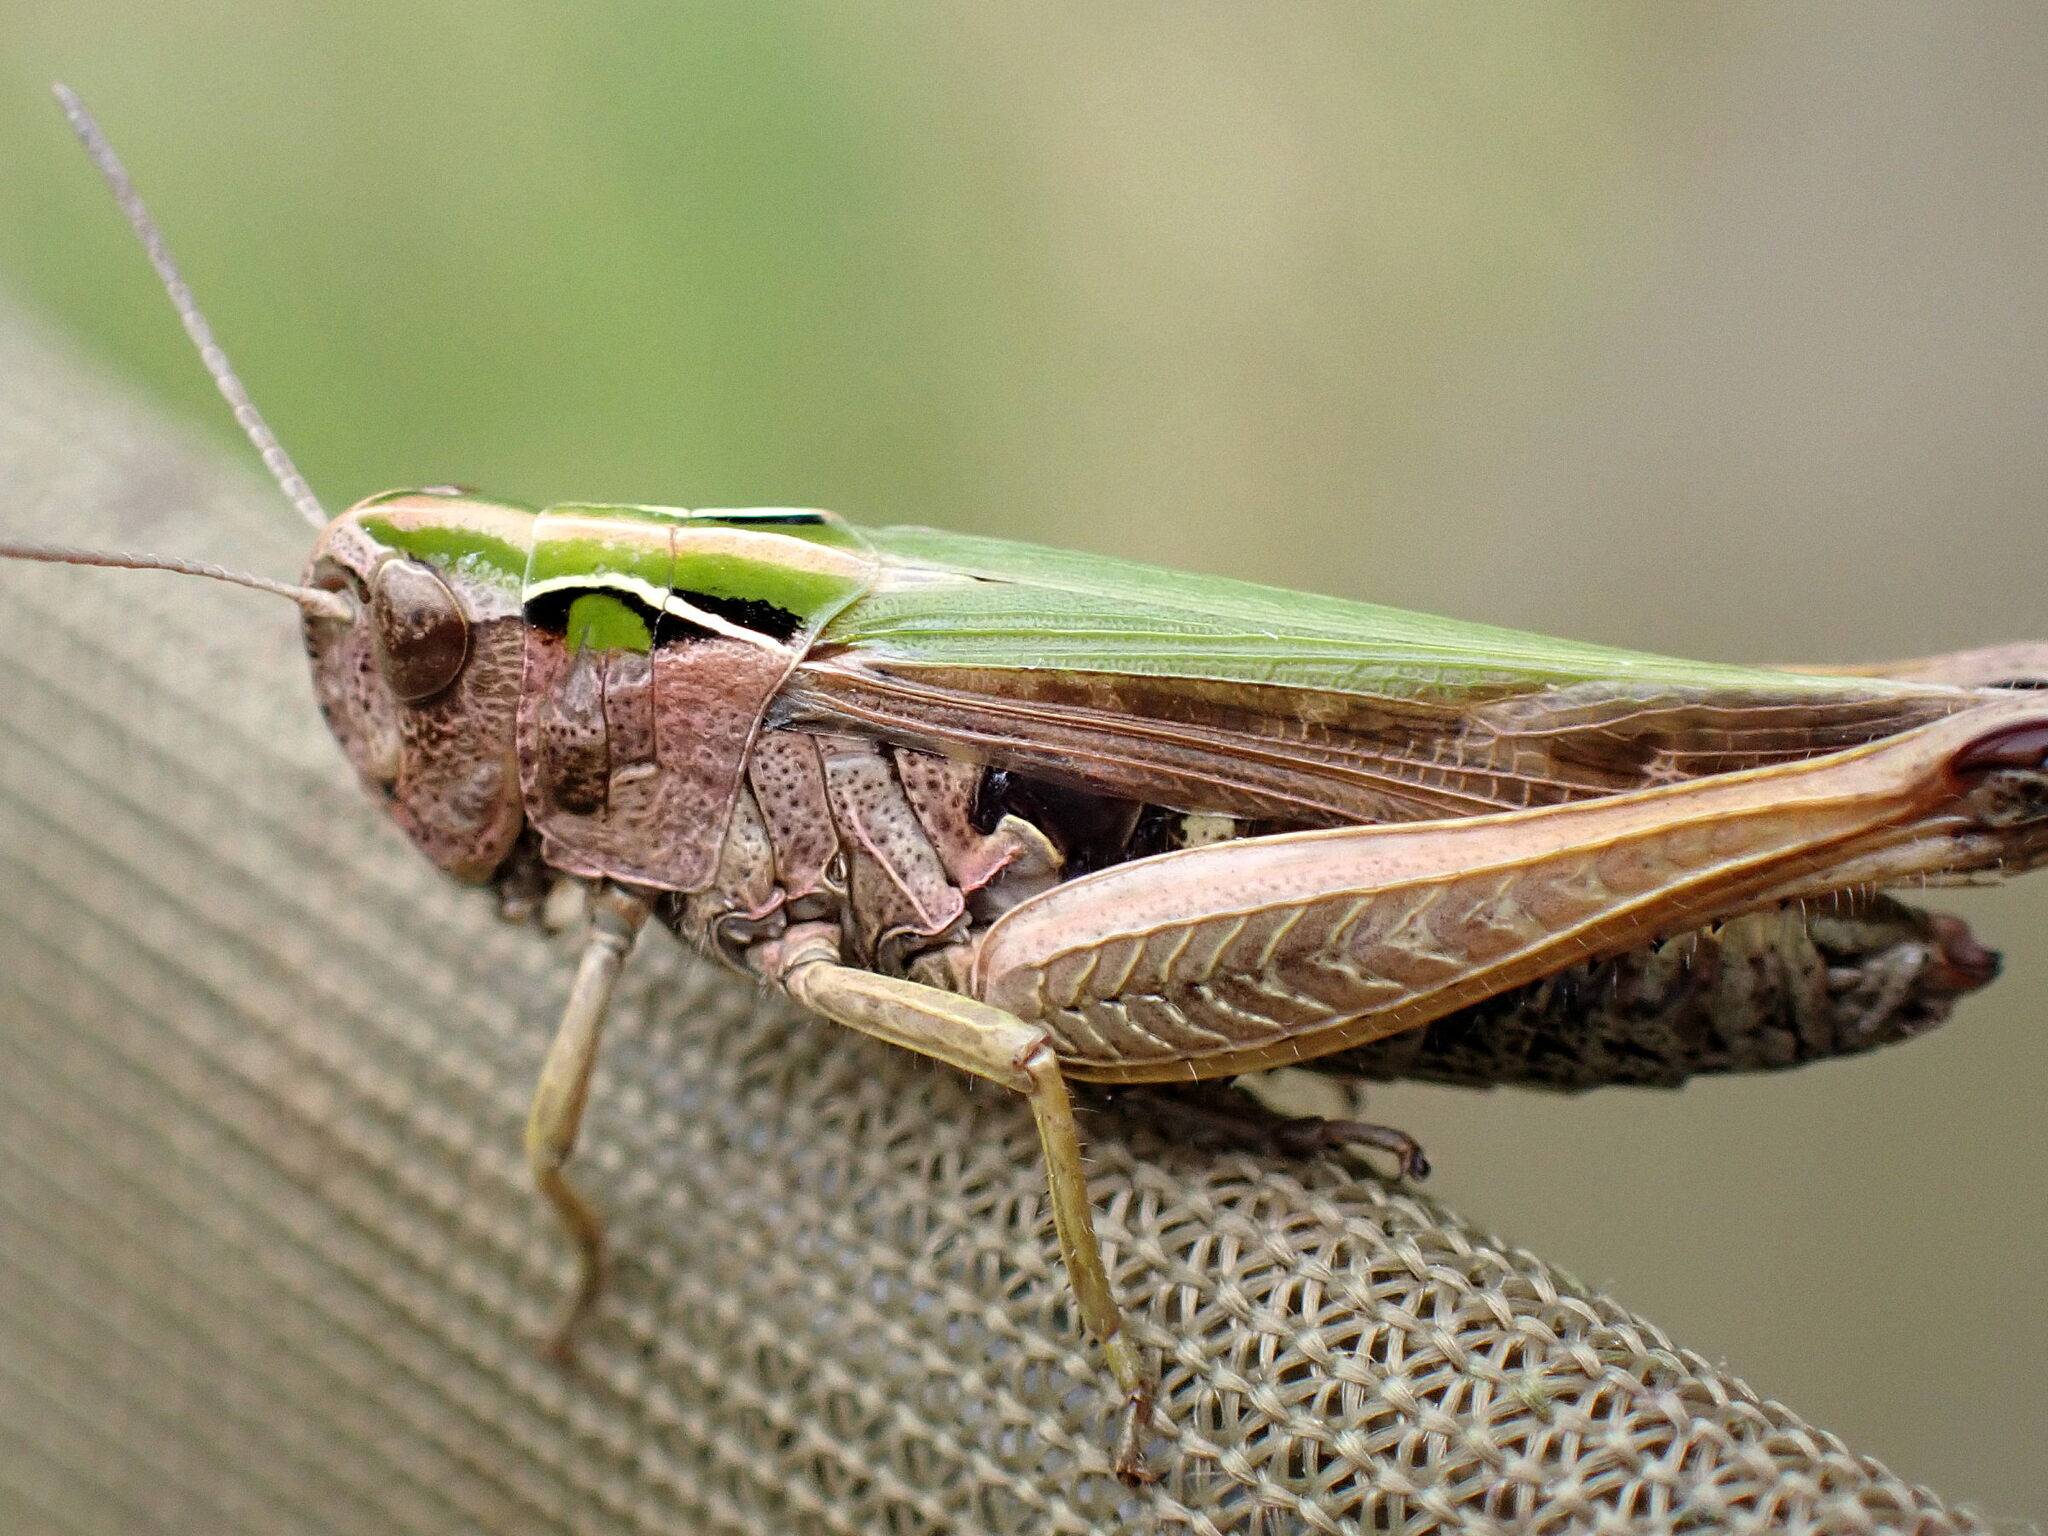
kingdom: Animalia
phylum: Arthropoda
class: Insecta
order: Orthoptera
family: Acrididae
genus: Omocestus
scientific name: Omocestus viridulus
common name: Common green grasshopper
